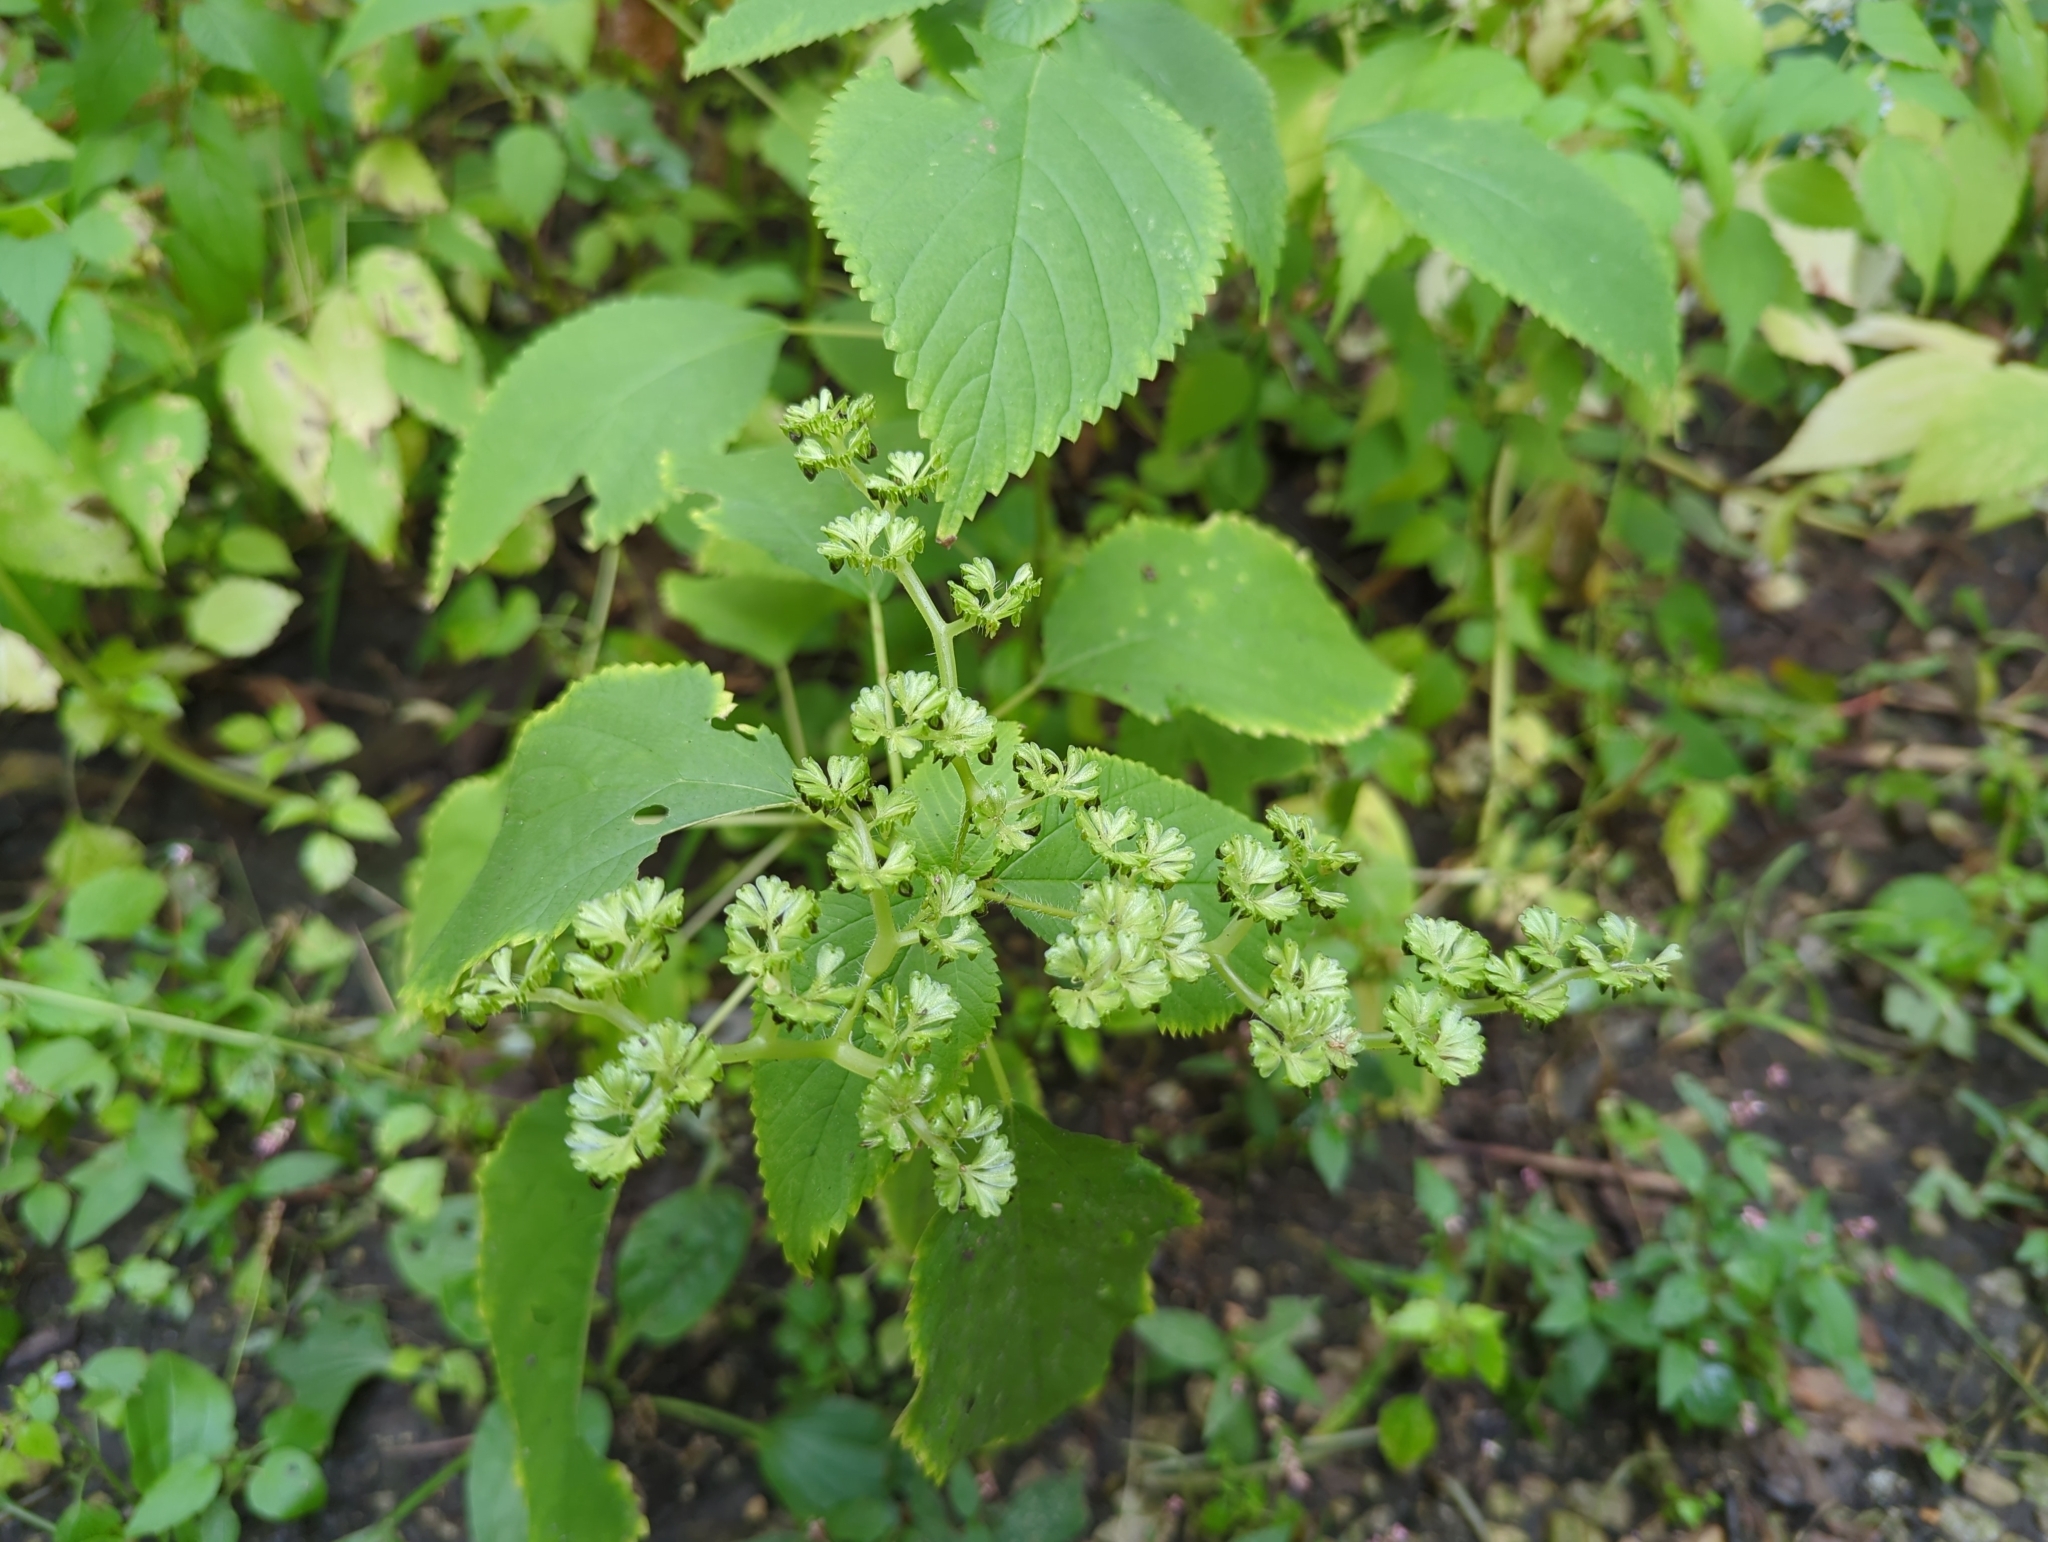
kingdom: Plantae
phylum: Tracheophyta
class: Magnoliopsida
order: Rosales
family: Urticaceae
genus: Laportea
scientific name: Laportea canadensis
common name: Canada nettle
